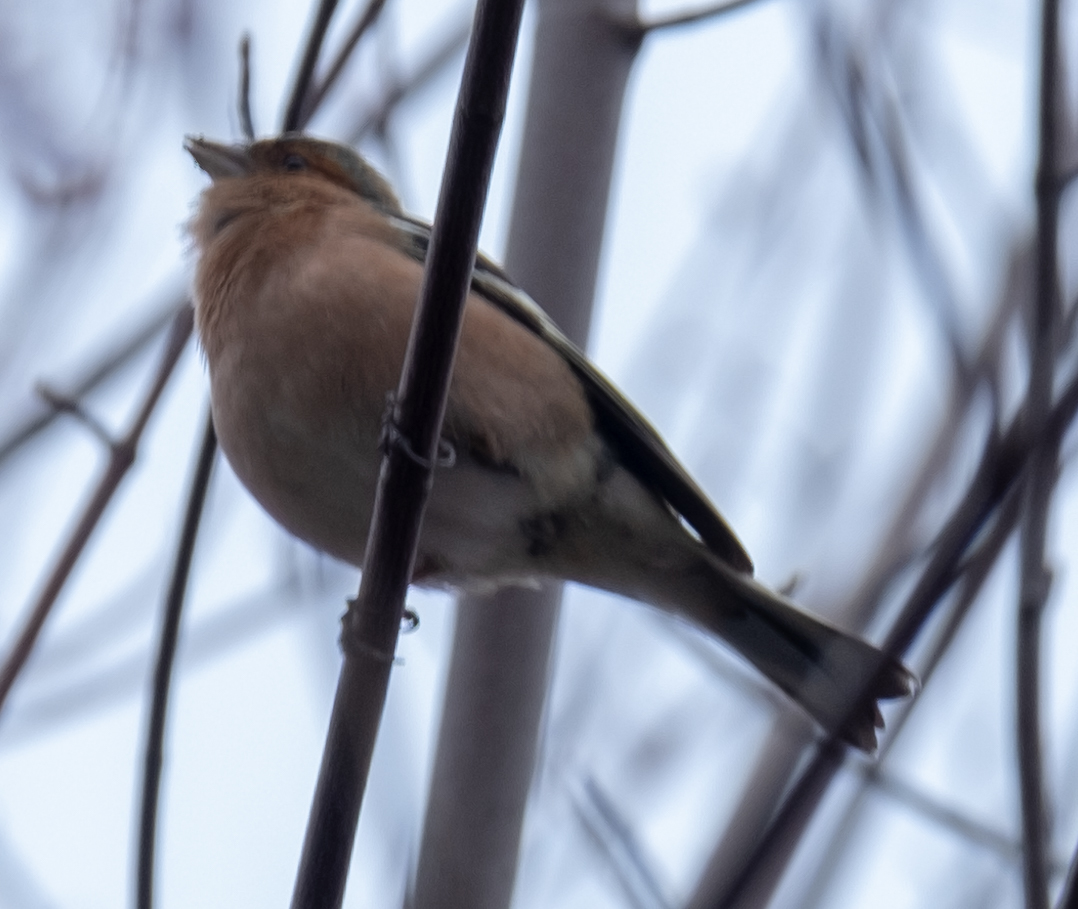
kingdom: Animalia
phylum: Chordata
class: Aves
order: Passeriformes
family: Fringillidae
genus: Fringilla
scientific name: Fringilla coelebs
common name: Common chaffinch
